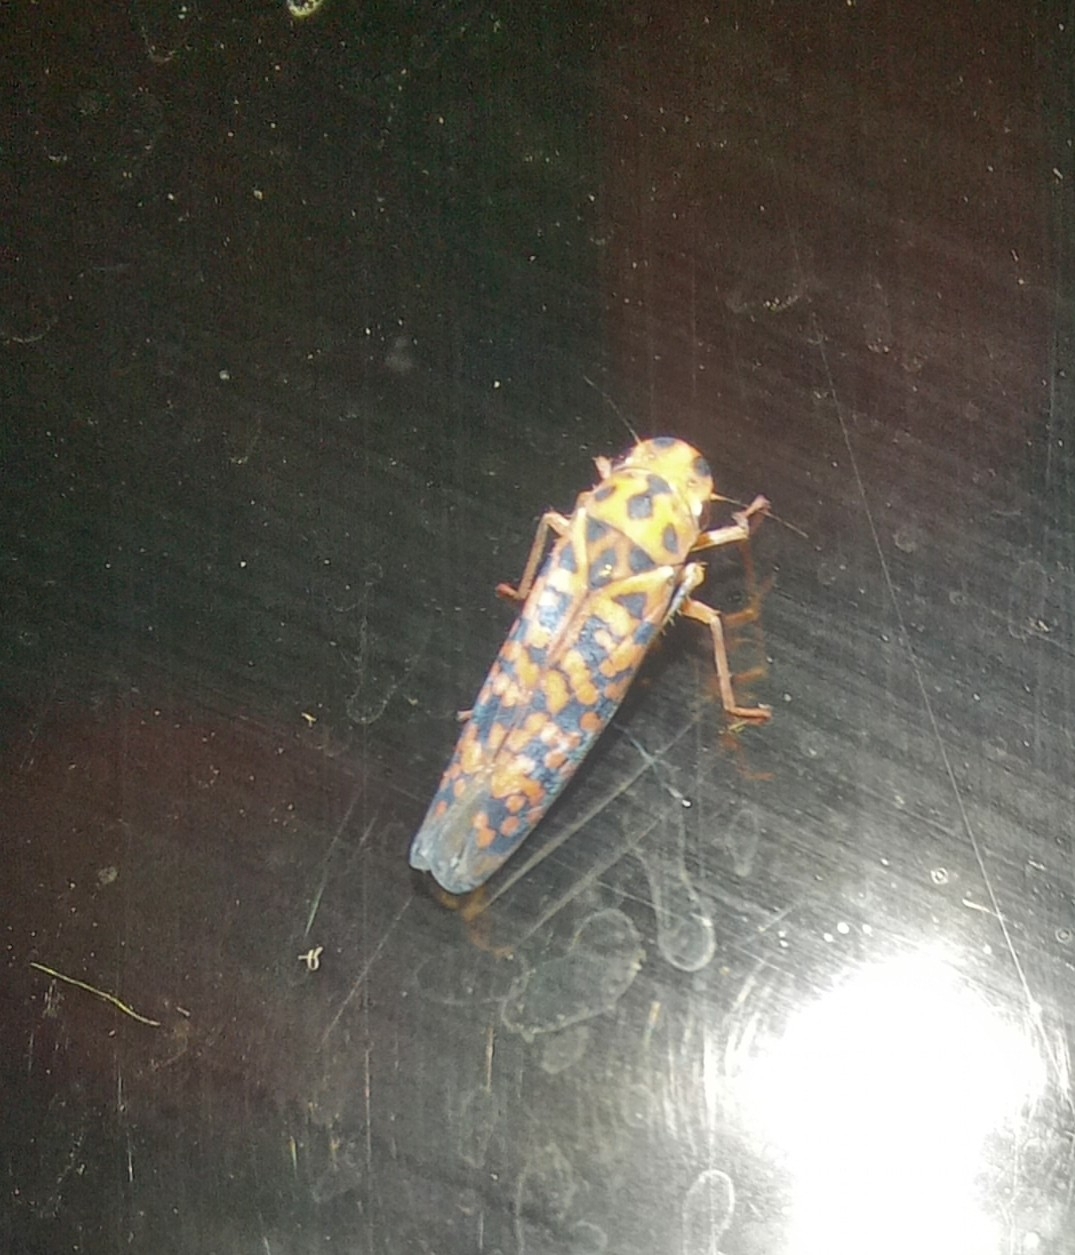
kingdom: Animalia
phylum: Arthropoda
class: Insecta
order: Hemiptera
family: Cicadellidae
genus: Pawiloma
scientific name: Pawiloma victima
